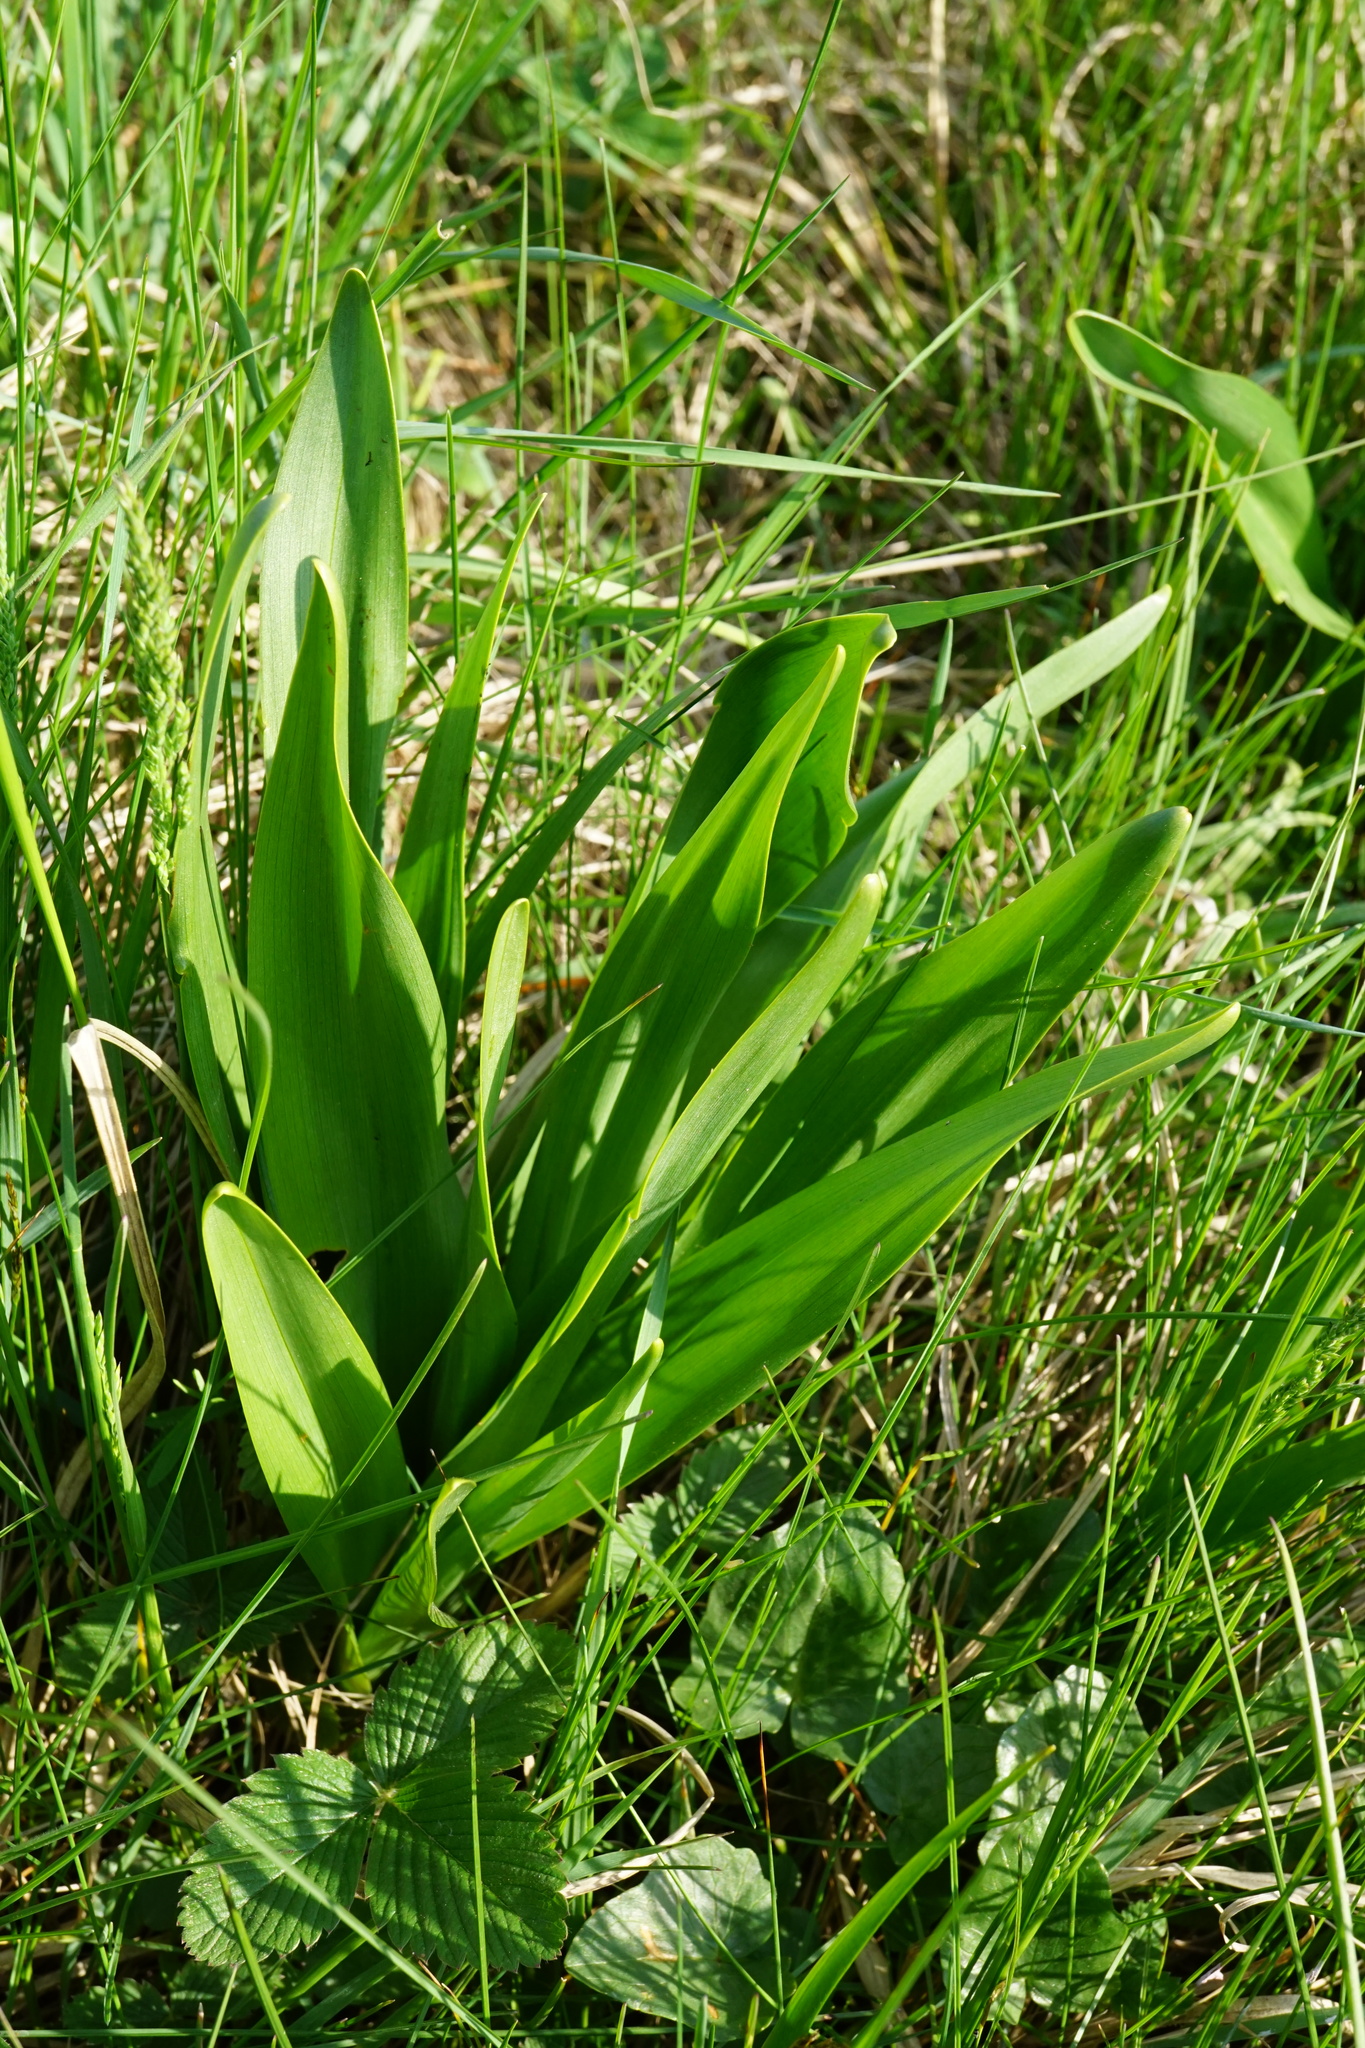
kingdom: Plantae
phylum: Tracheophyta
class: Liliopsida
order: Liliales
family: Colchicaceae
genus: Colchicum
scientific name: Colchicum autumnale
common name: Autumn crocus
